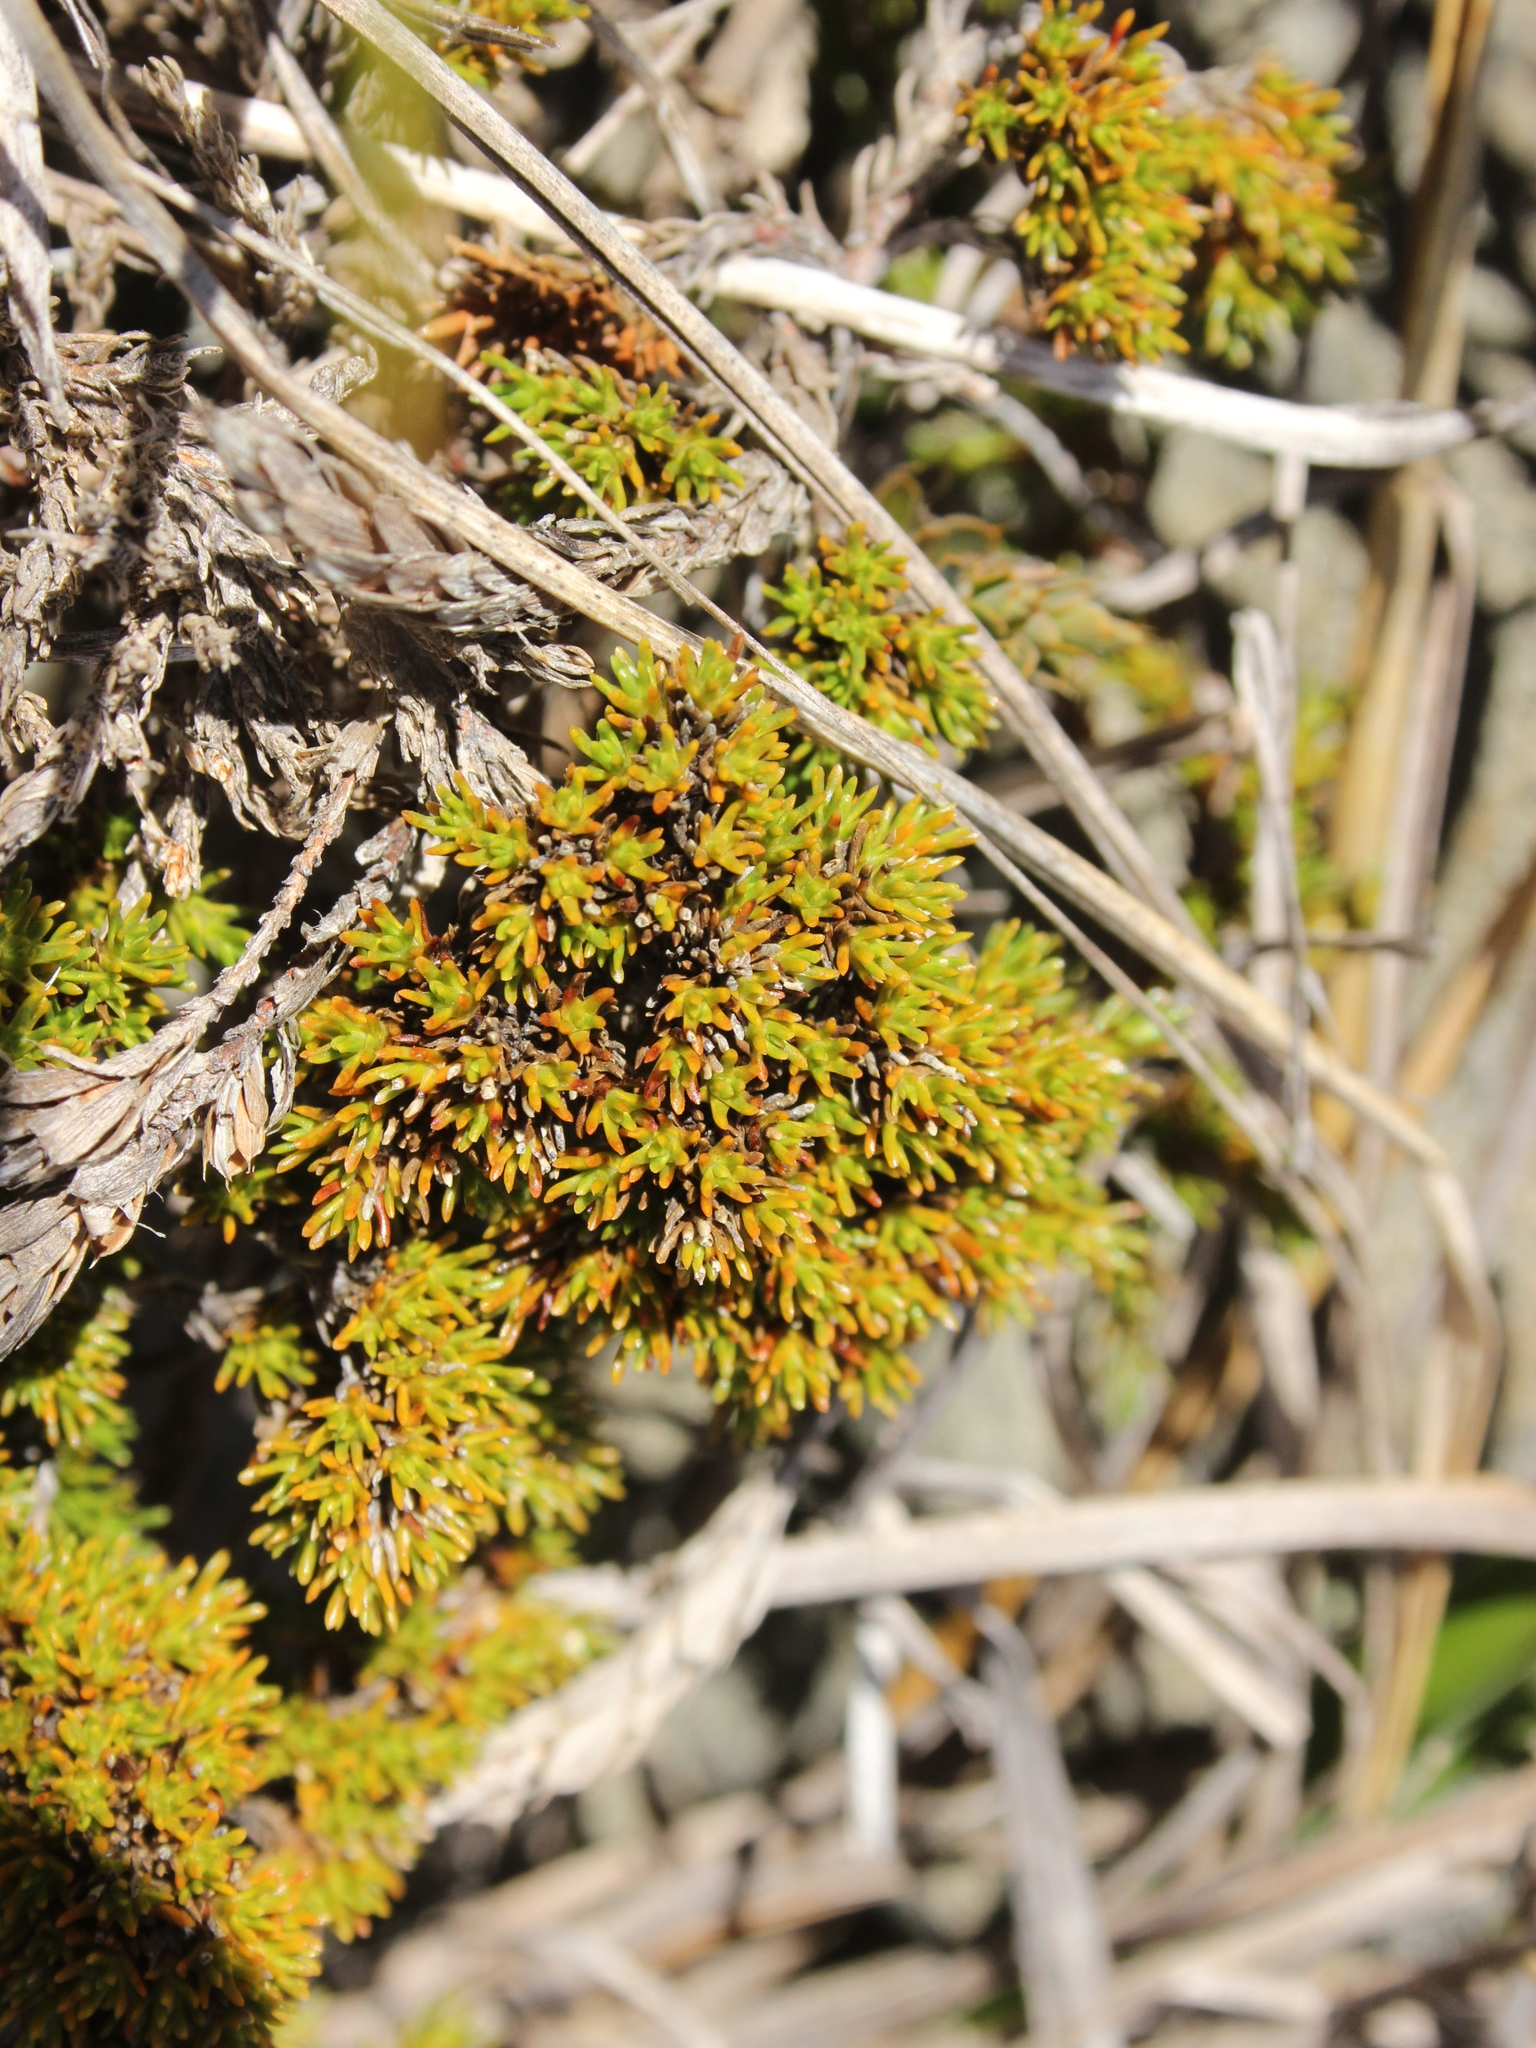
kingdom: Plantae
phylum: Tracheophyta
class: Magnoliopsida
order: Ericales
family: Ericaceae
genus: Dracophyllum
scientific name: Dracophyllum muscoides
